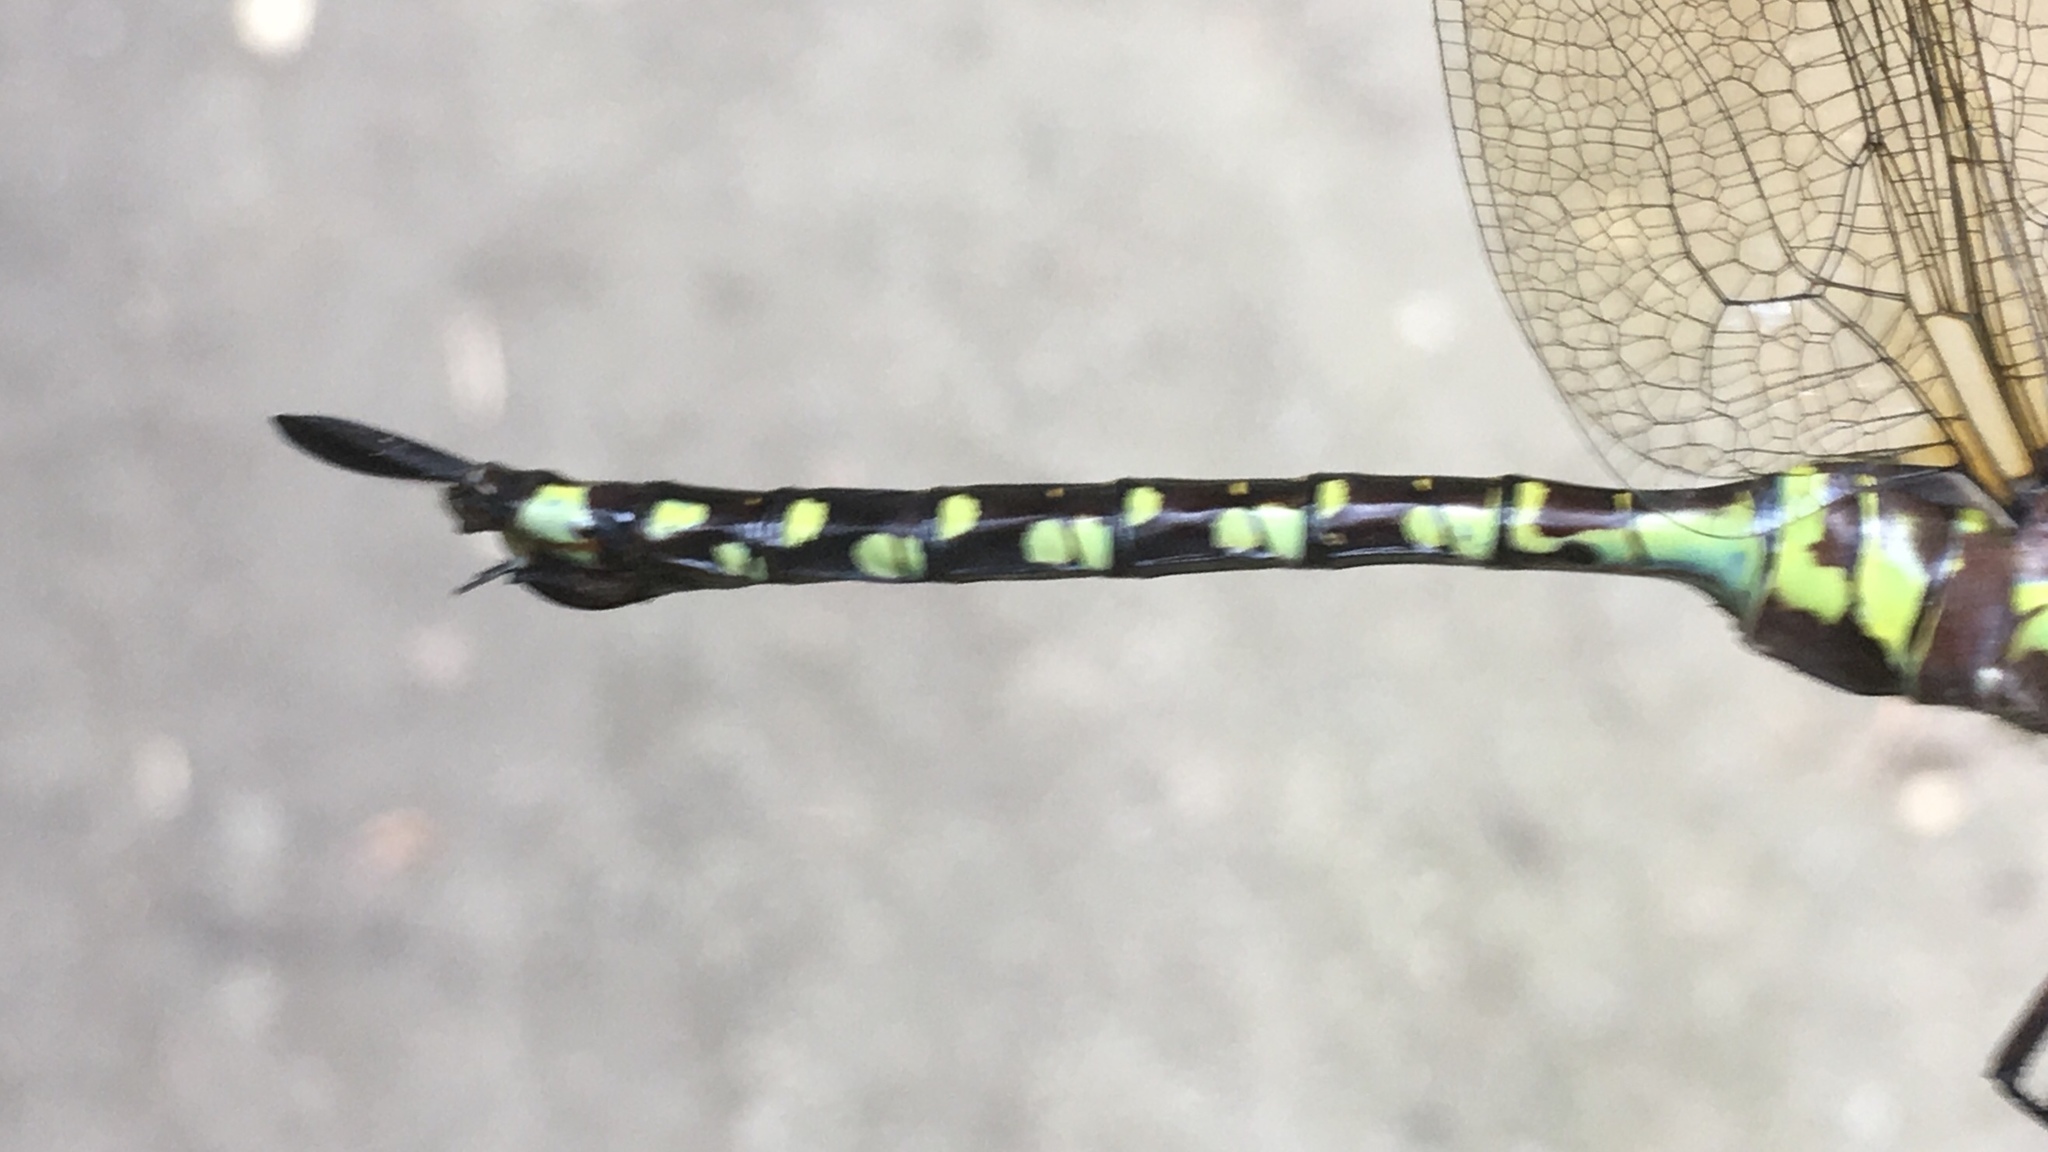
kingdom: Animalia
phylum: Arthropoda
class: Insecta
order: Odonata
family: Aeshnidae
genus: Aeshna
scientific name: Aeshna constricta
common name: Lance-tipped darner
